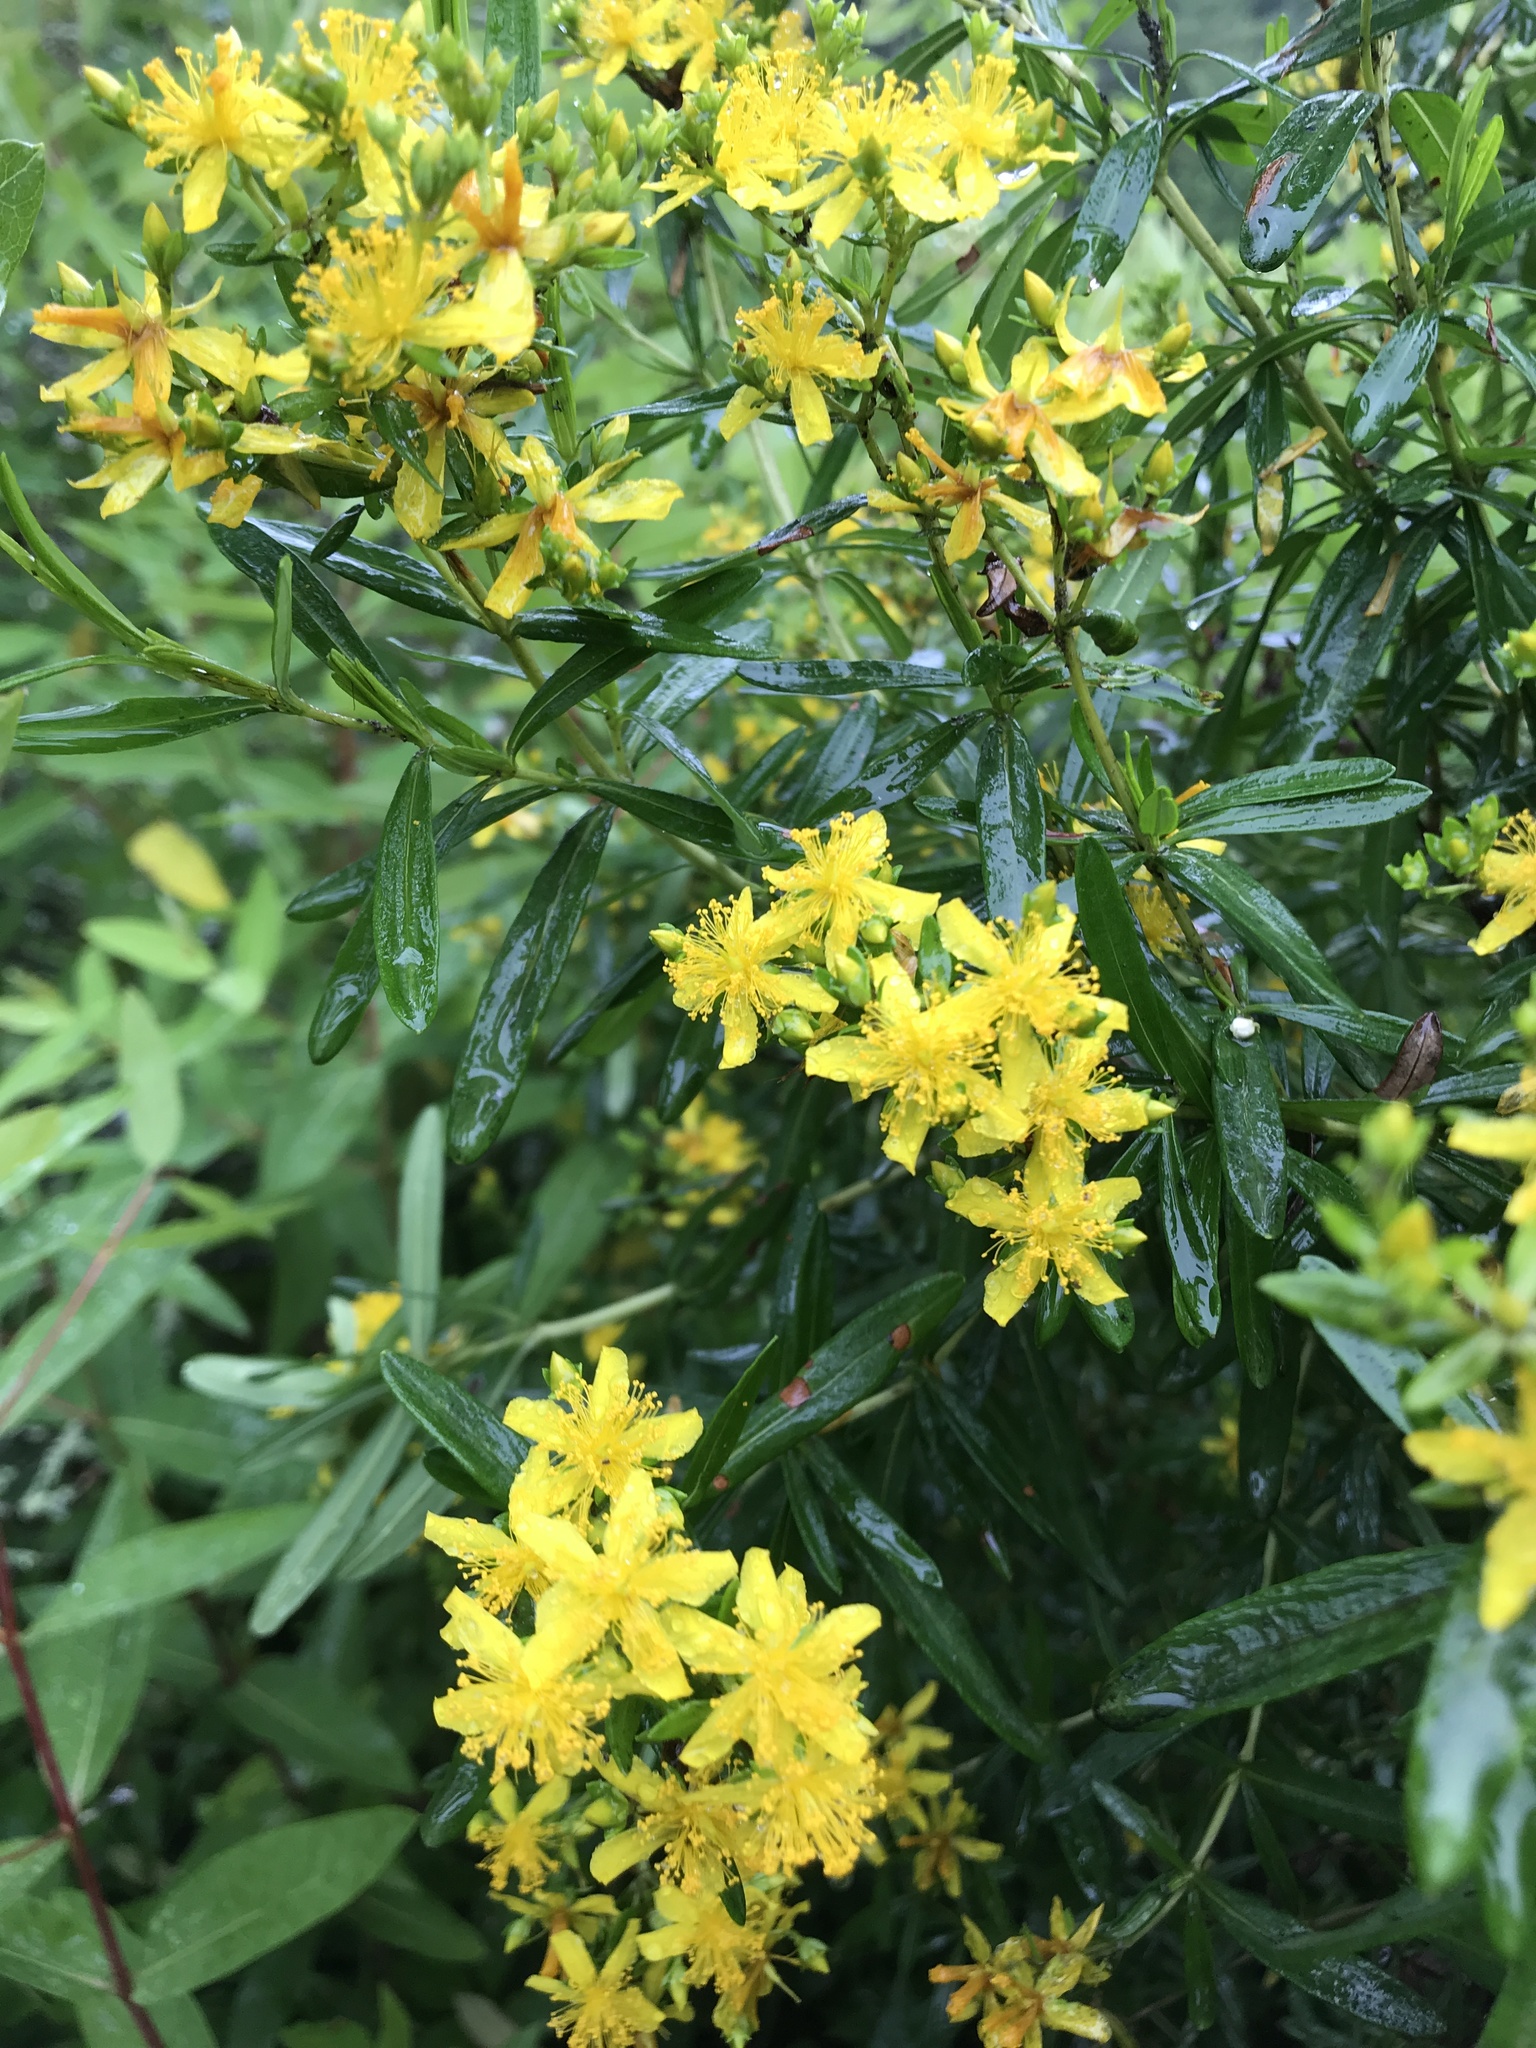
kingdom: Plantae
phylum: Tracheophyta
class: Magnoliopsida
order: Malpighiales
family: Hypericaceae
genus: Hypericum
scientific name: Hypericum densiflorum
